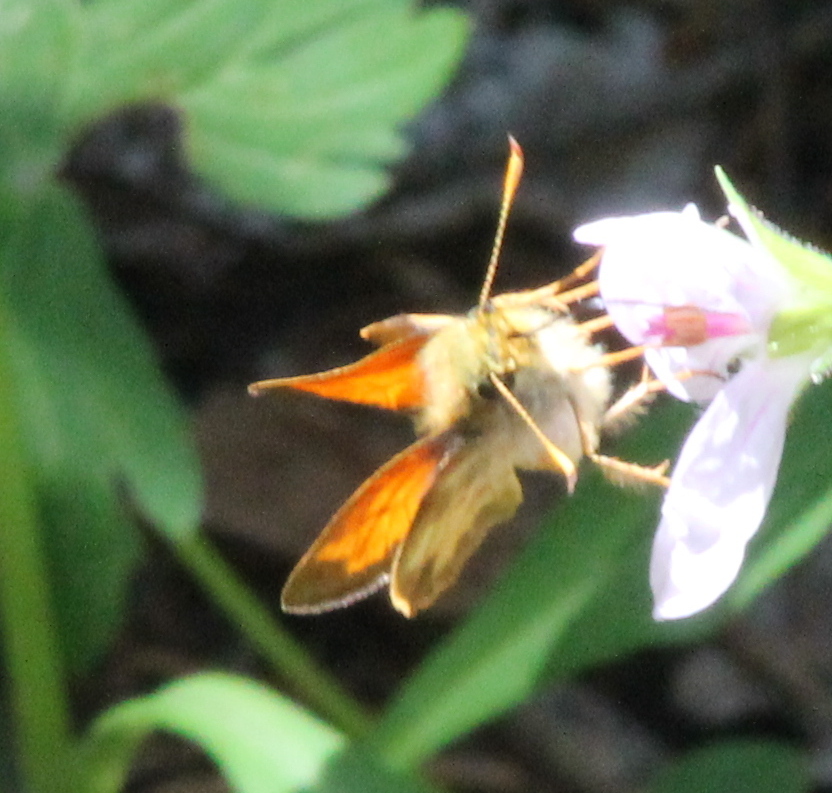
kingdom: Animalia
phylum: Arthropoda
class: Insecta
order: Lepidoptera
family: Hesperiidae
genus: Lon
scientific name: Lon taxiles
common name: Taxiles skipper
